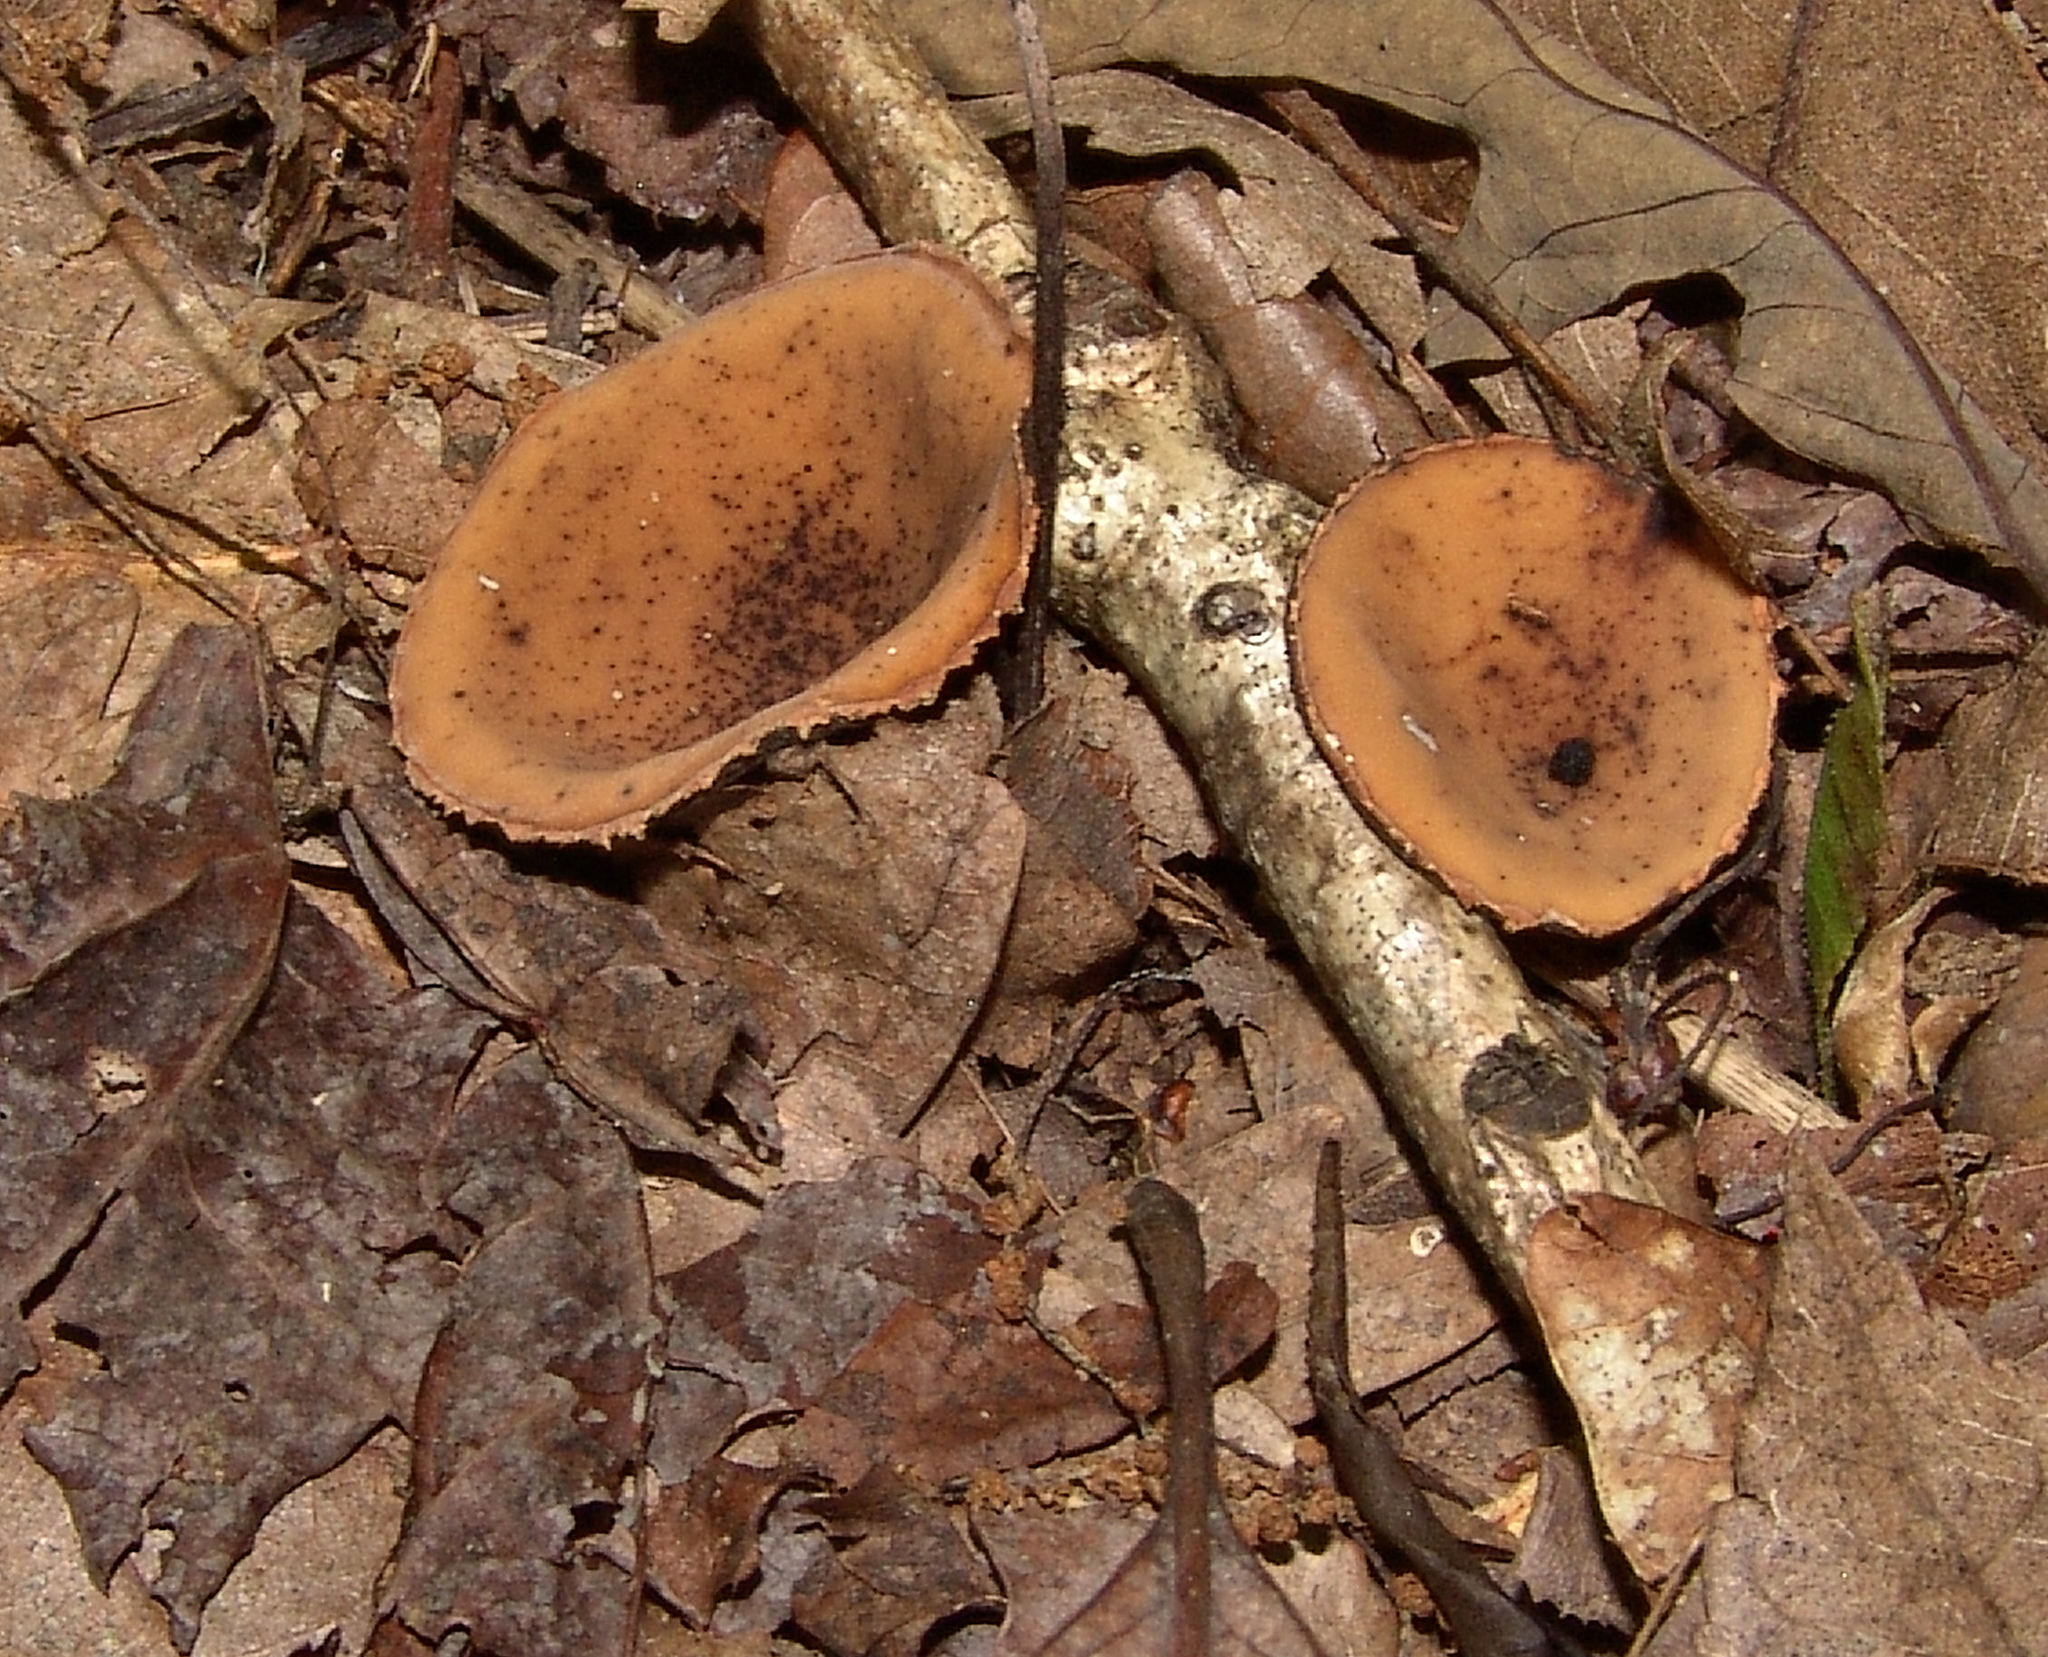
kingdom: Fungi
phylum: Ascomycota
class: Pezizomycetes
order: Pezizales
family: Sarcosomataceae
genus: Galiella
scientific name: Galiella rufa
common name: Hairy rubber cup
